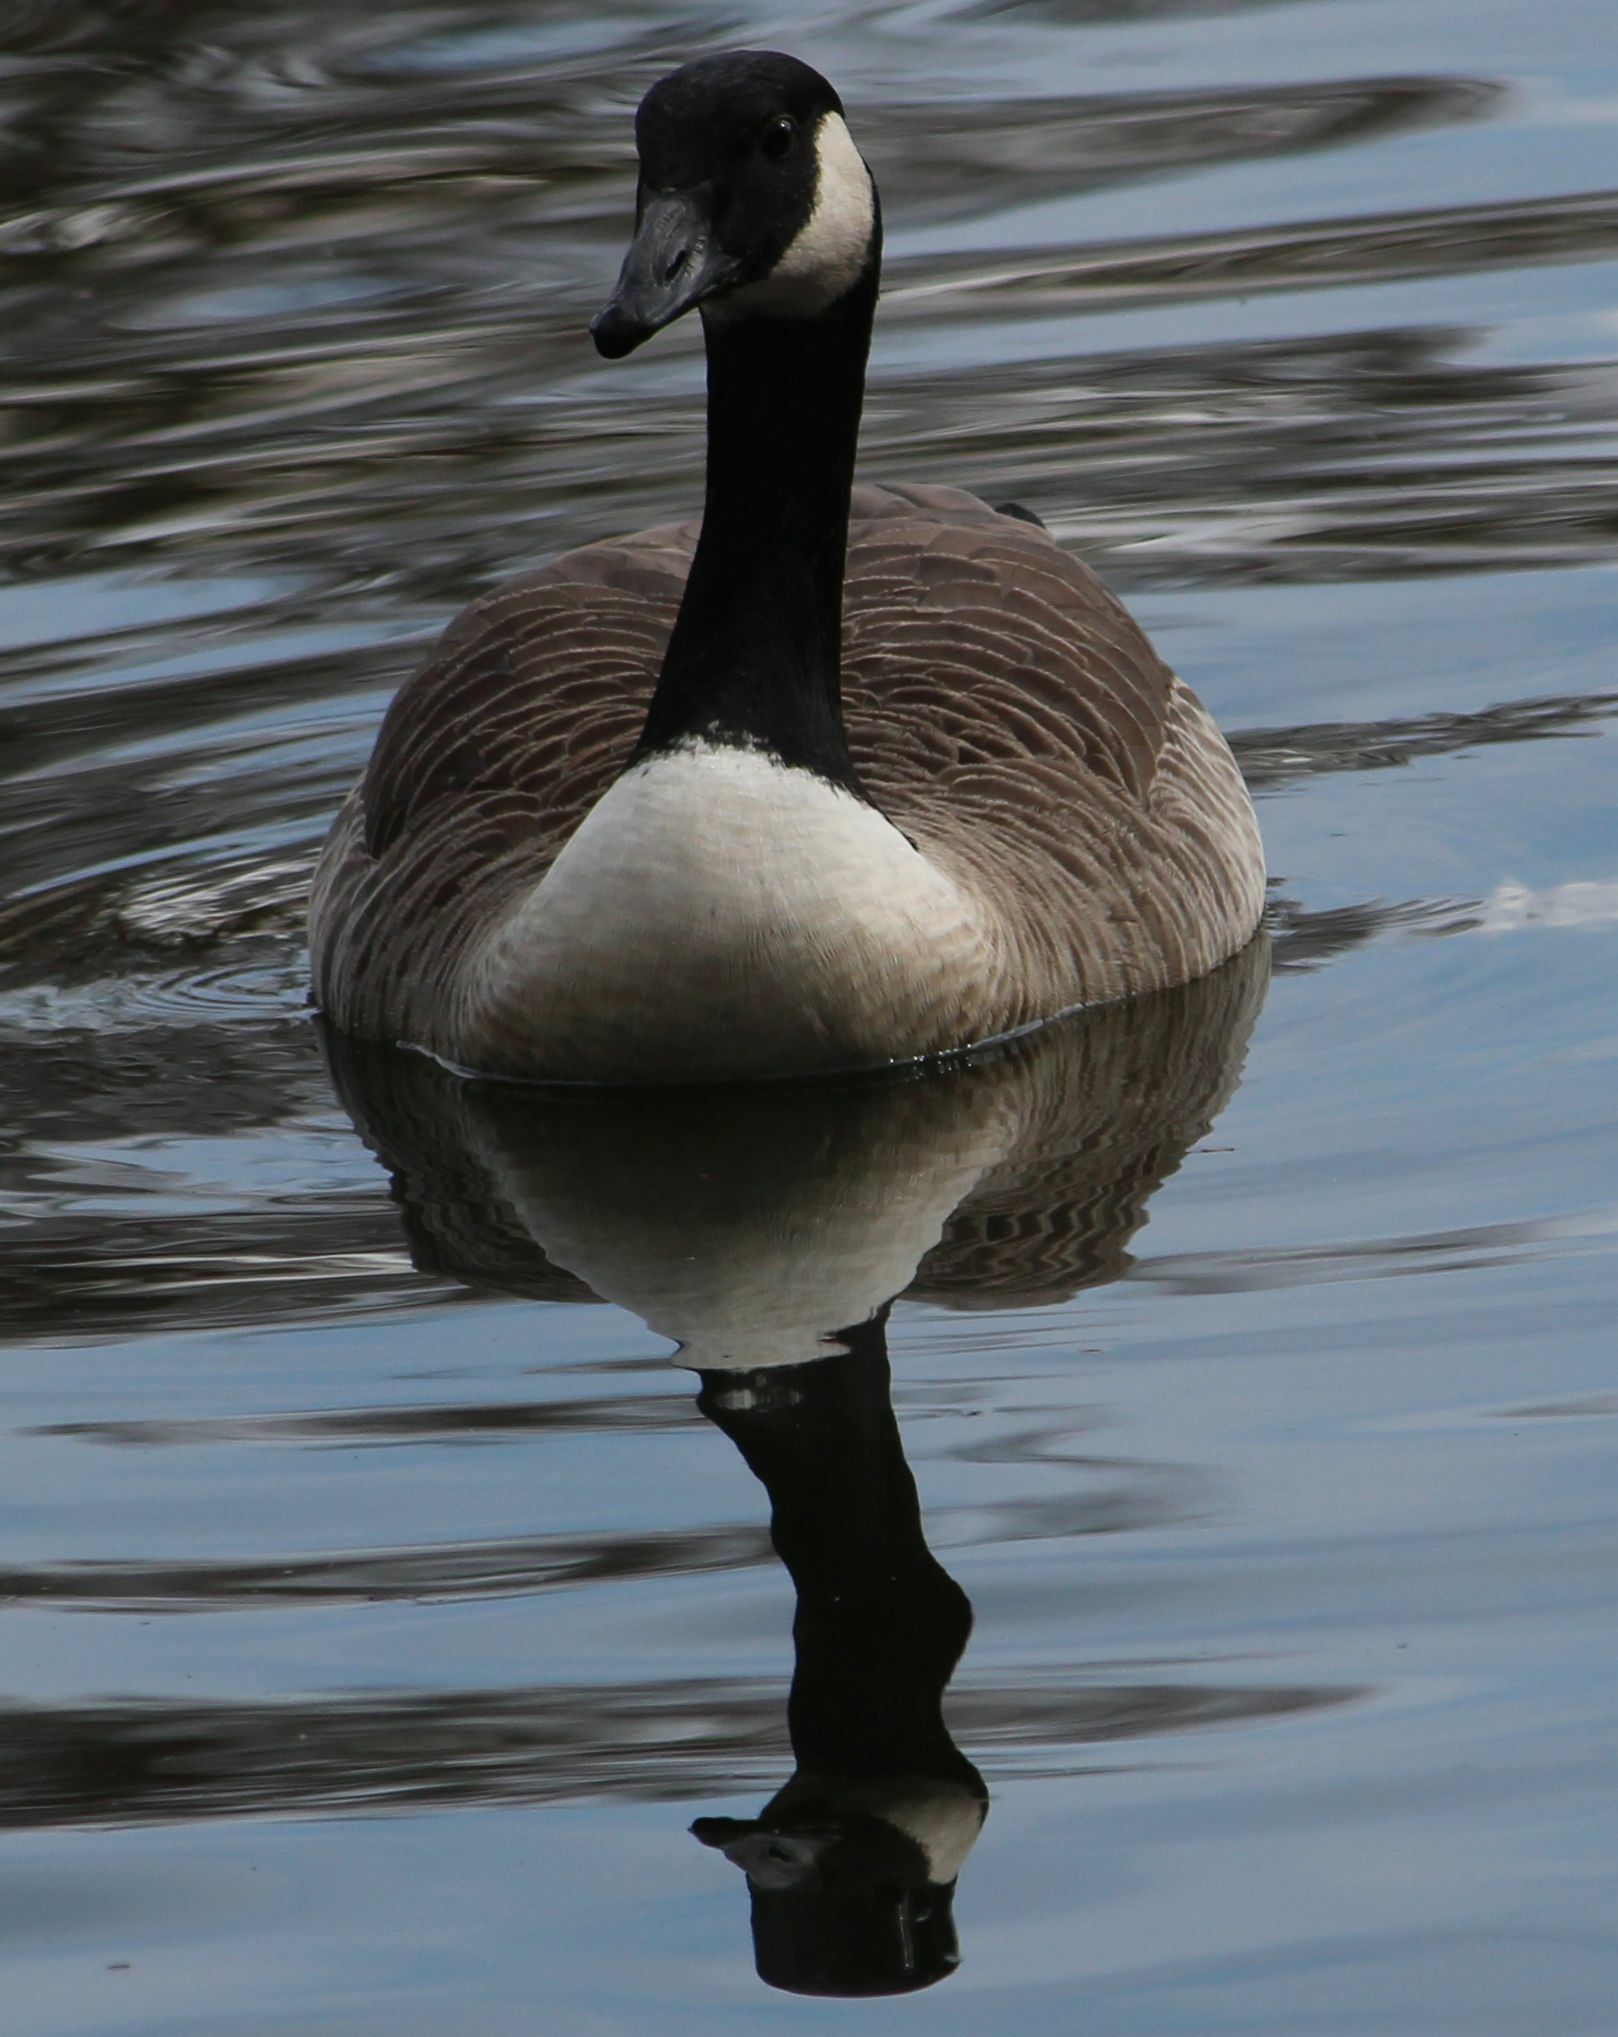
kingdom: Animalia
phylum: Chordata
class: Aves
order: Anseriformes
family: Anatidae
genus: Branta
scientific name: Branta canadensis
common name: Canada goose
